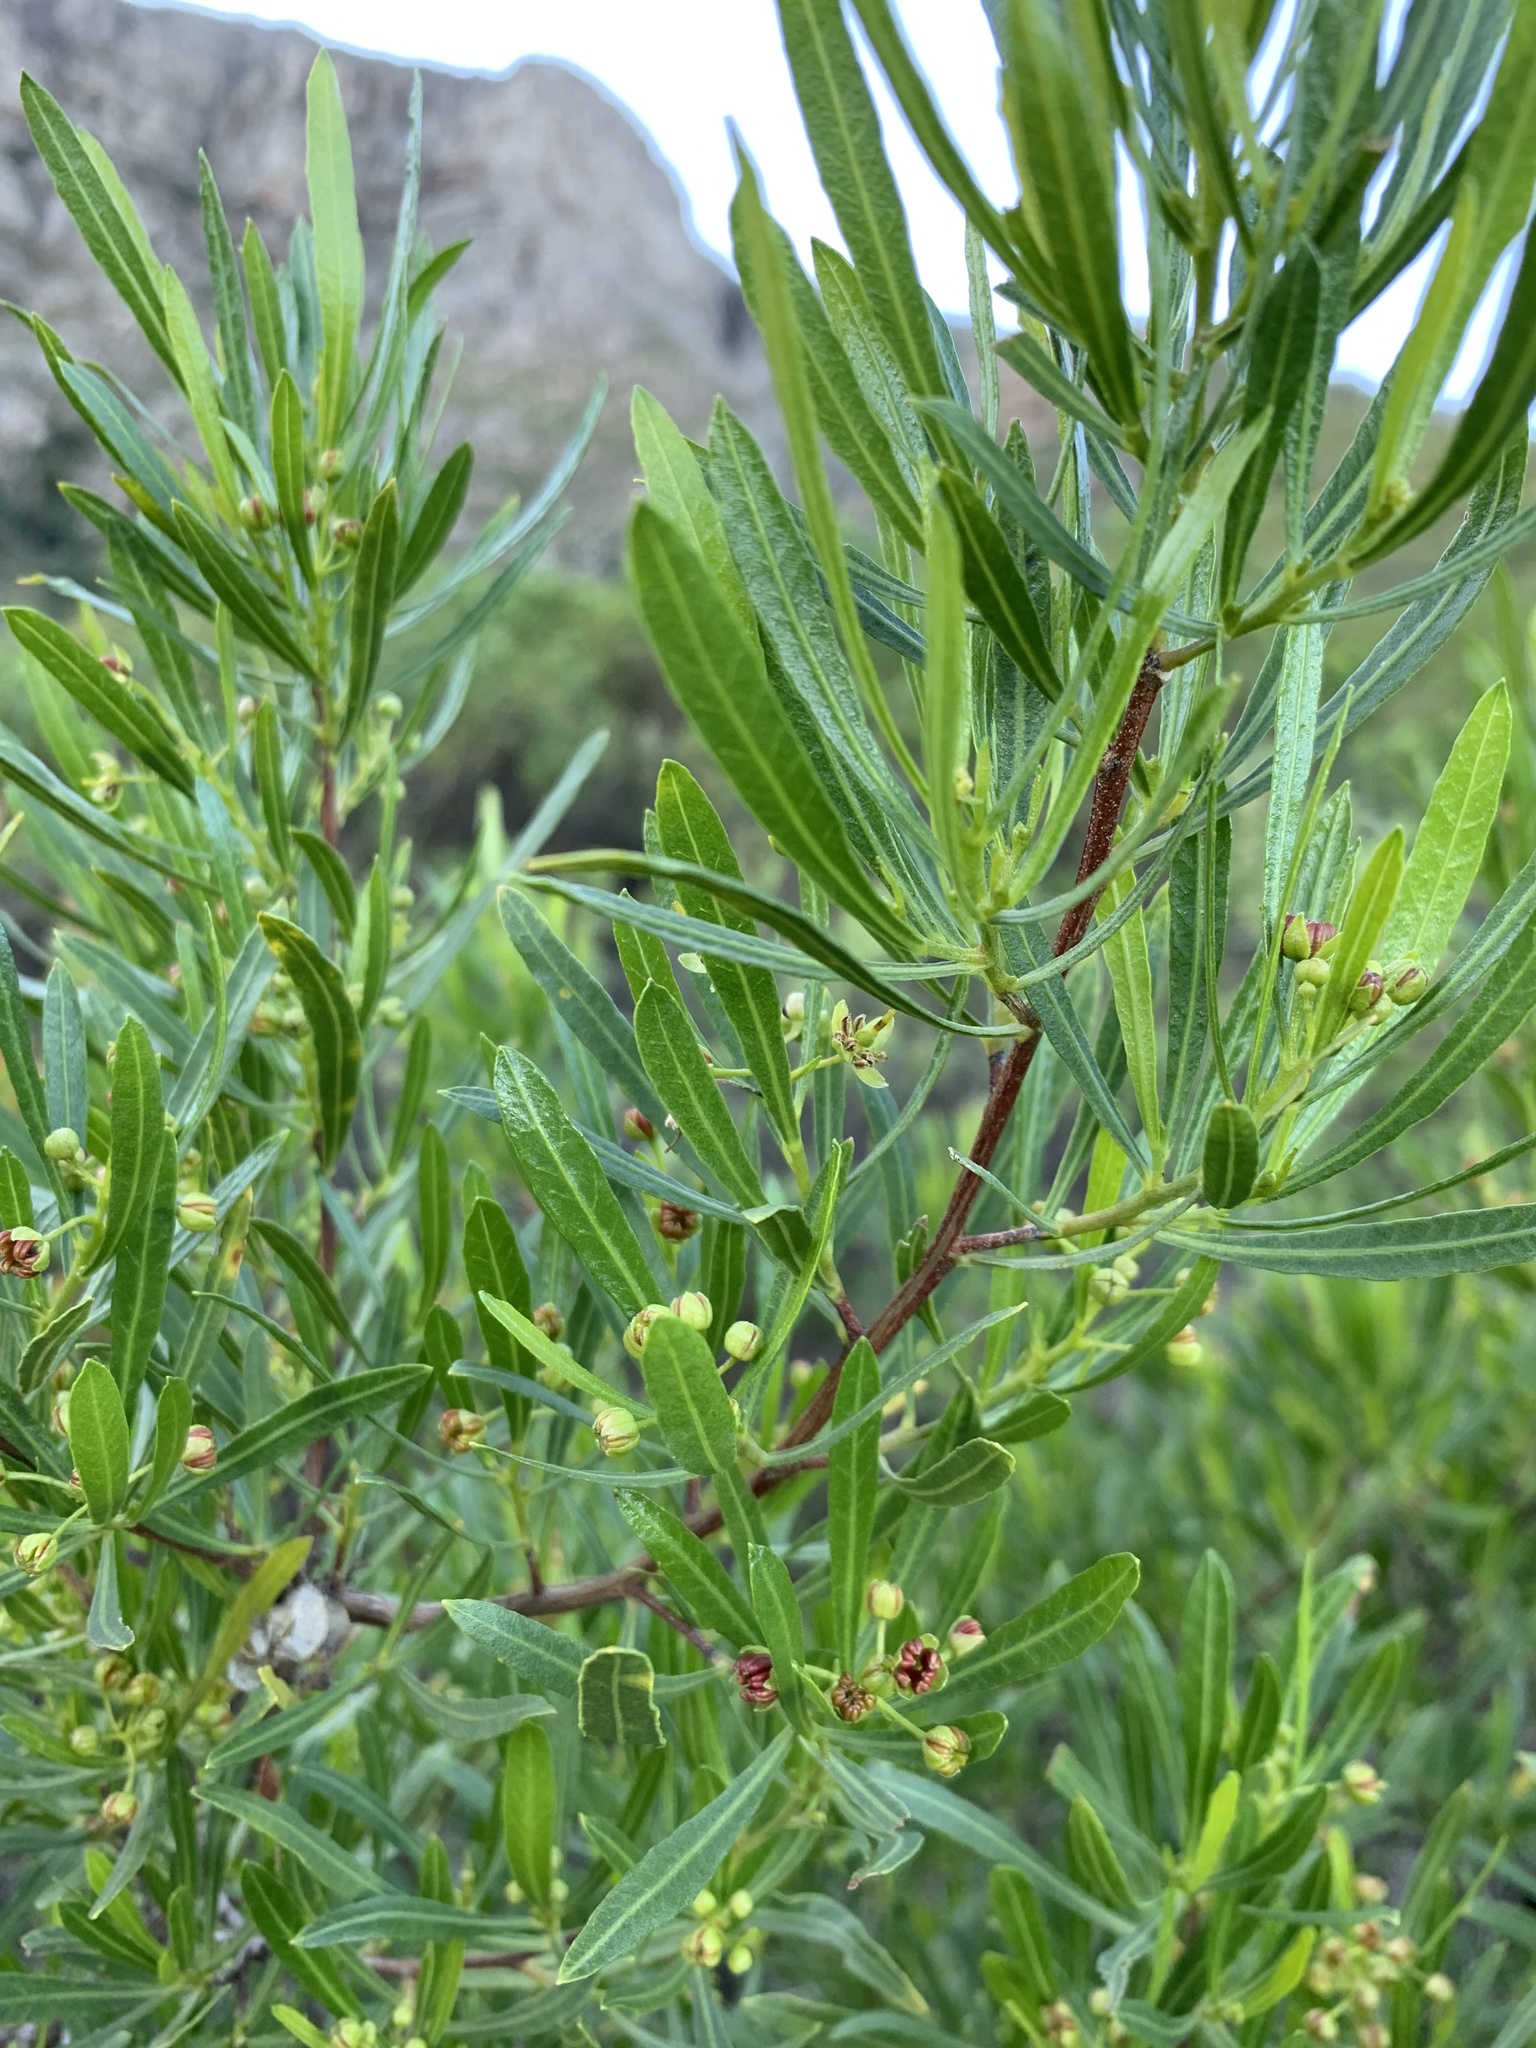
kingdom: Plantae
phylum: Tracheophyta
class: Magnoliopsida
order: Sapindales
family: Sapindaceae
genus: Dodonaea
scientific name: Dodonaea viscosa
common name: Hopbush
